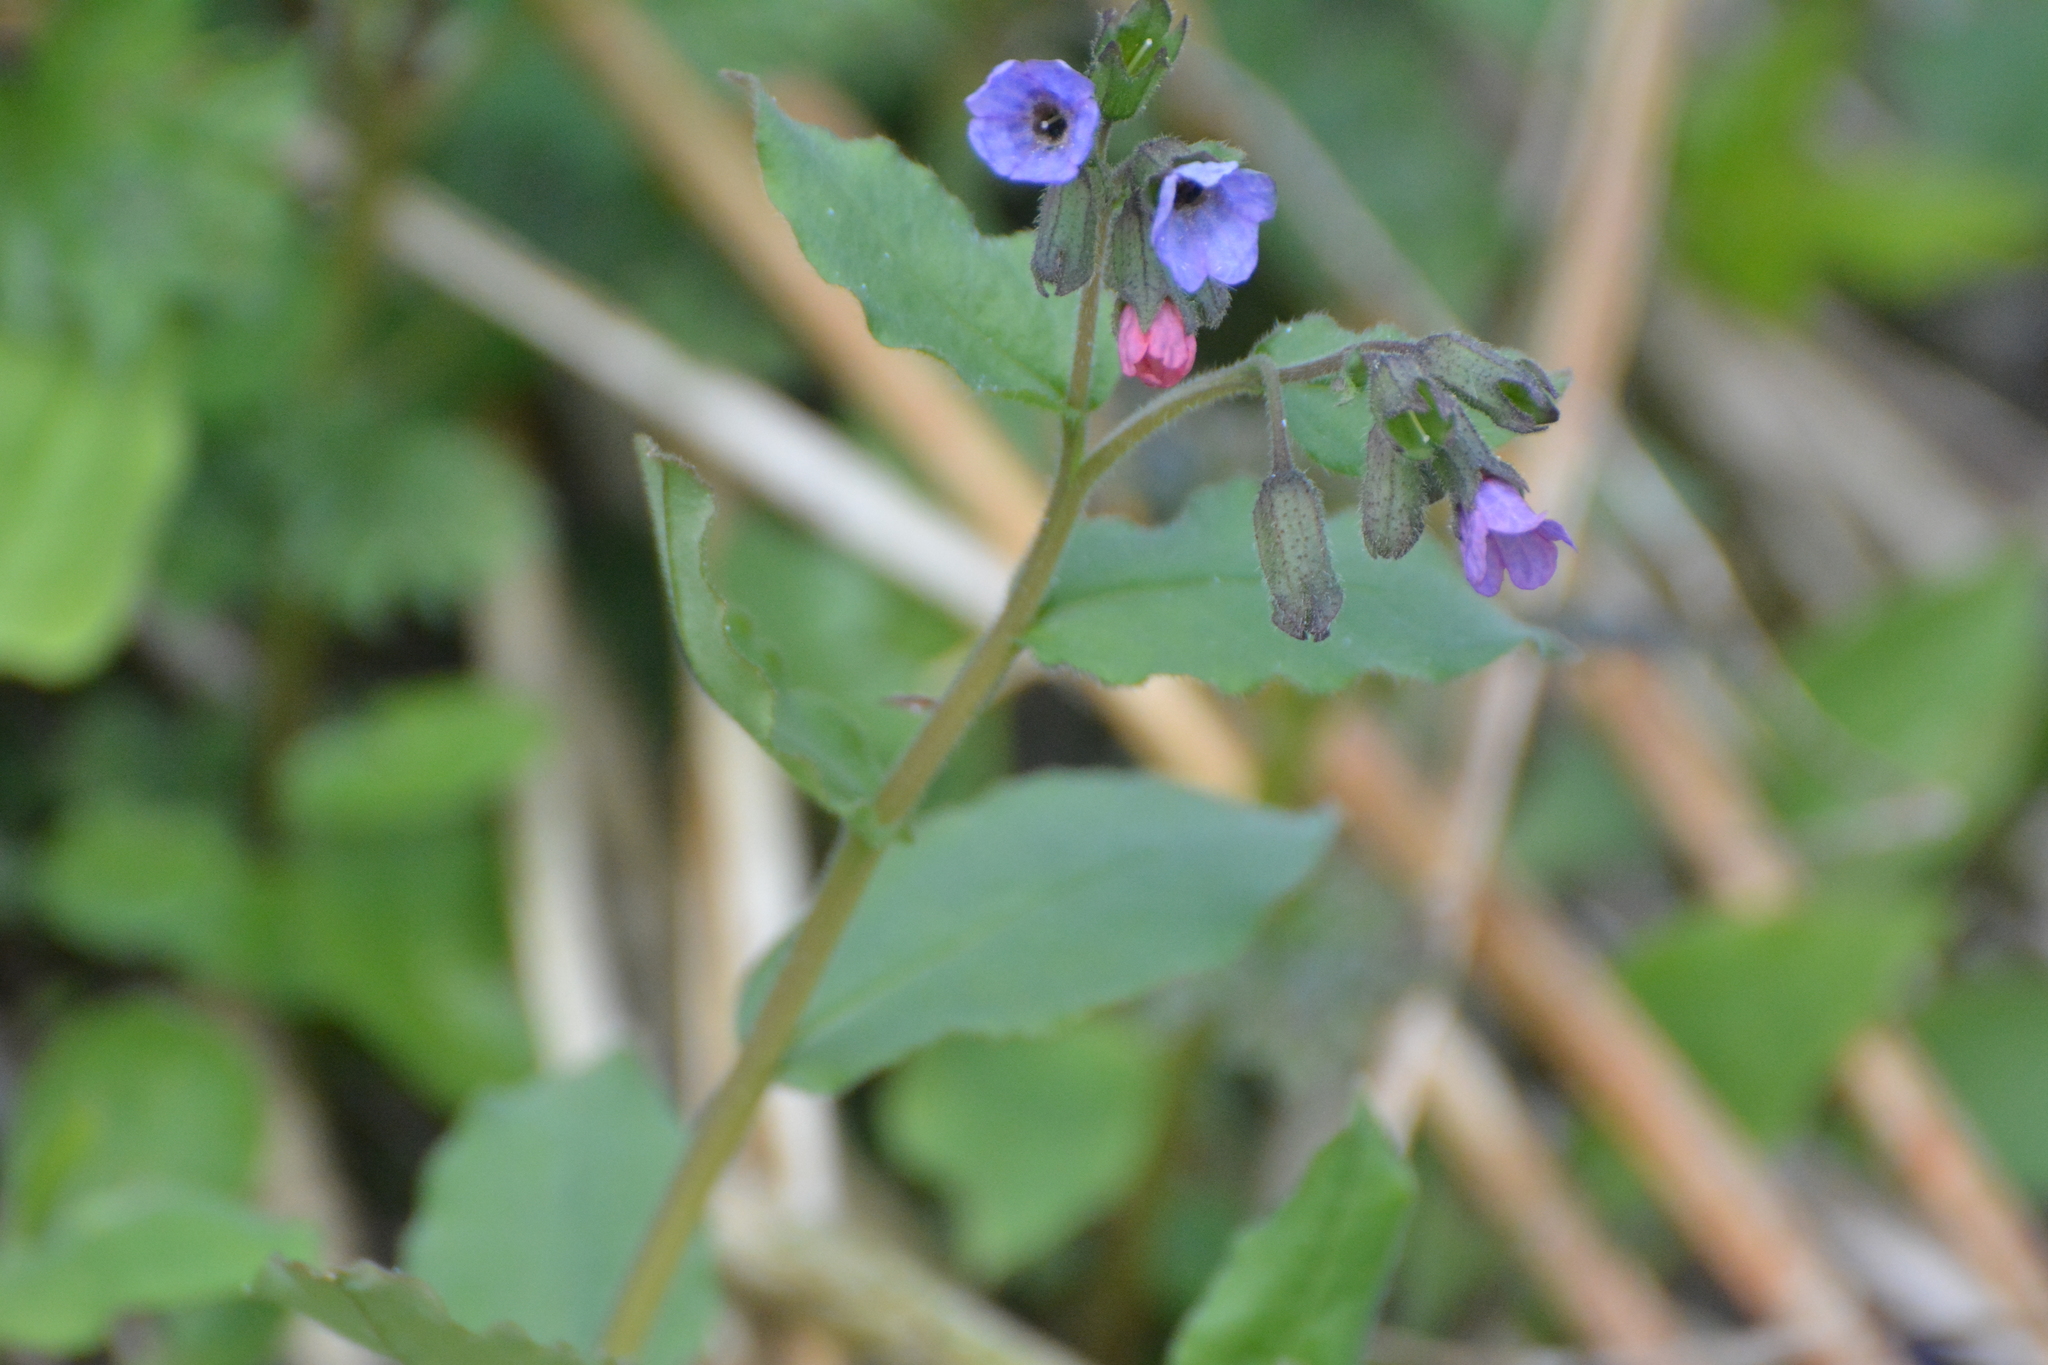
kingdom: Plantae
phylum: Tracheophyta
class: Magnoliopsida
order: Boraginales
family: Boraginaceae
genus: Pulmonaria
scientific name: Pulmonaria obscura
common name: Suffolk lungwort
